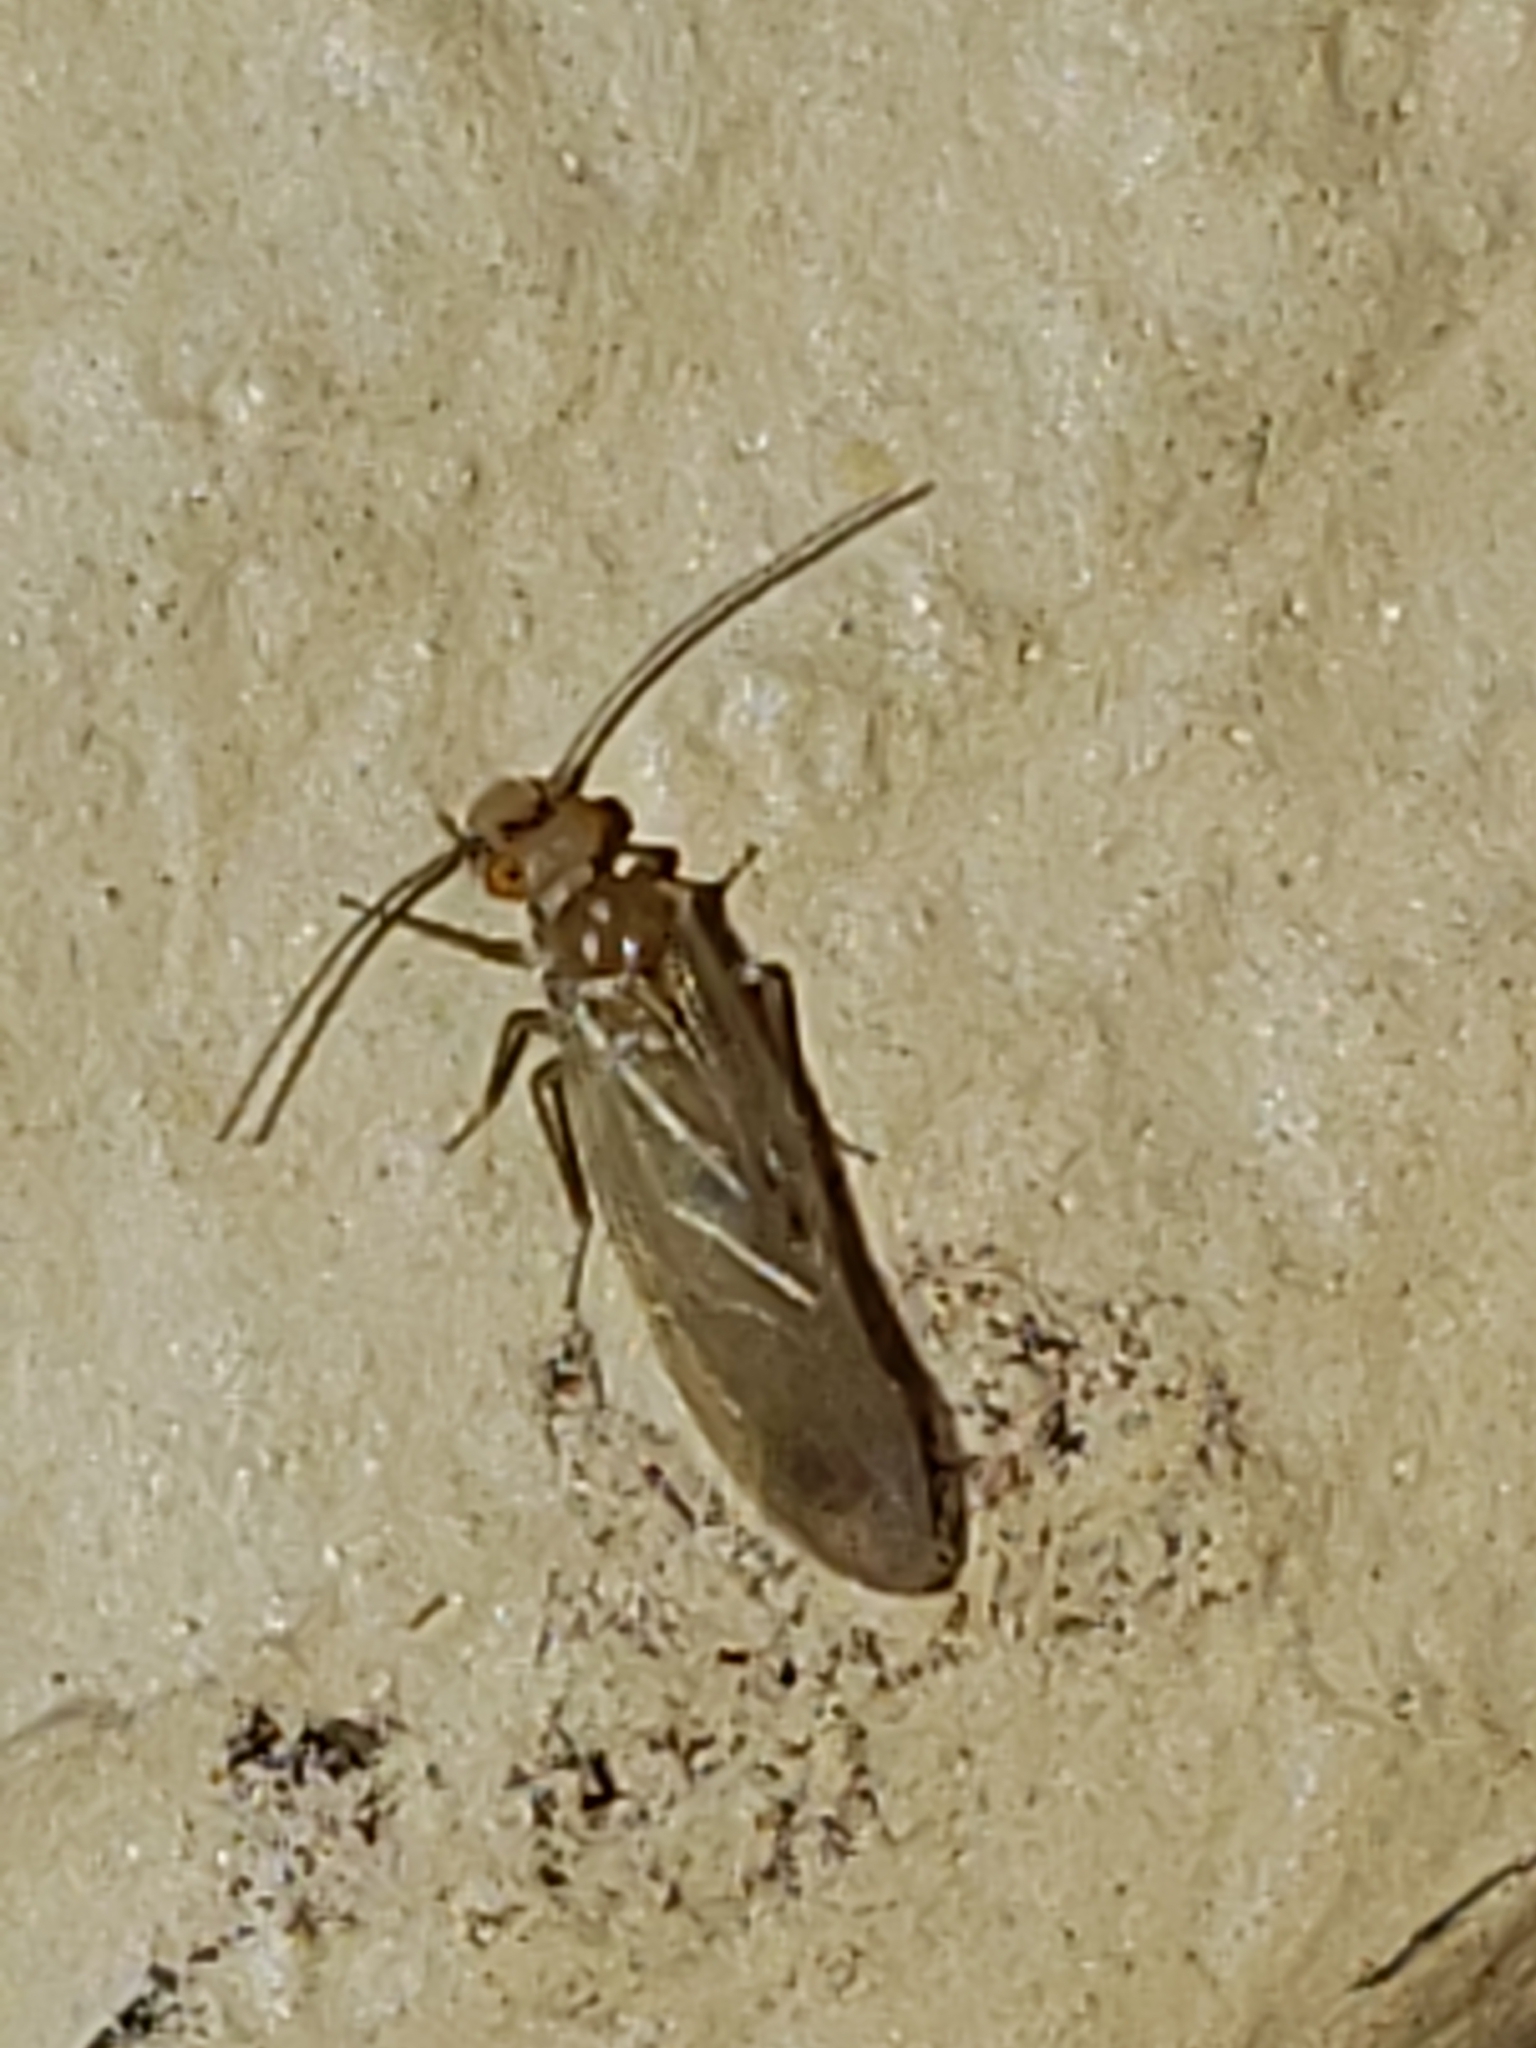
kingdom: Animalia
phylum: Arthropoda
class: Insecta
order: Psocodea
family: Caeciliusidae
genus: Valenzuela
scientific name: Valenzuela flavidus
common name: Yellow barklouse
